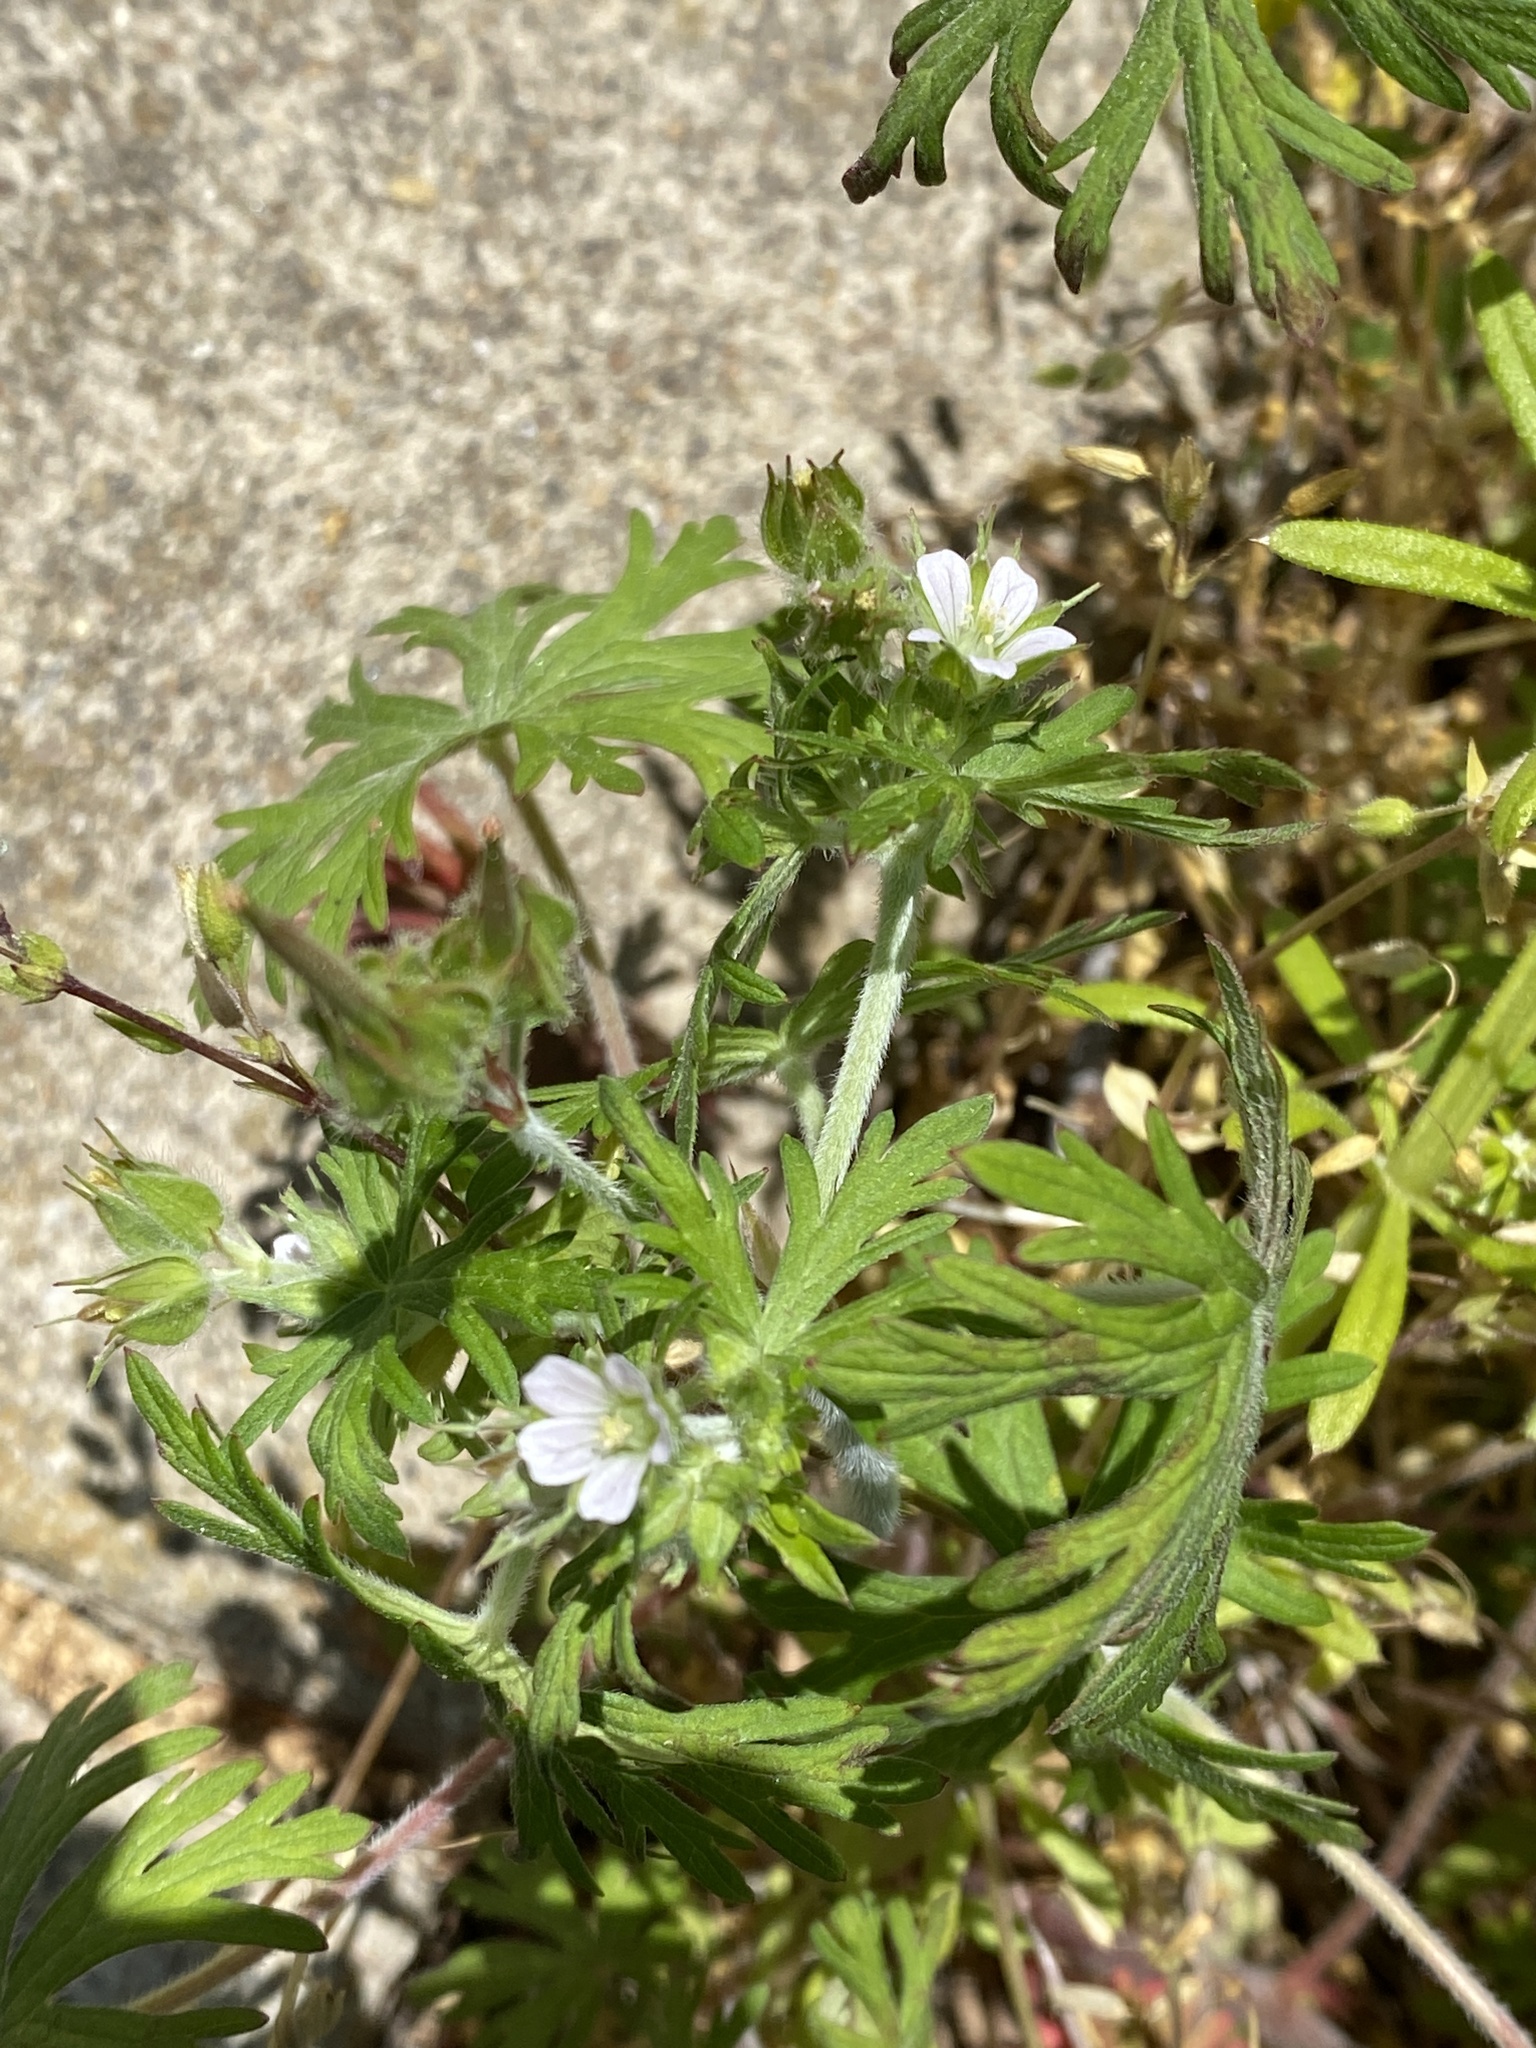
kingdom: Plantae
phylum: Tracheophyta
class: Magnoliopsida
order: Geraniales
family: Geraniaceae
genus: Geranium
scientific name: Geranium carolinianum
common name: Carolina crane's-bill
